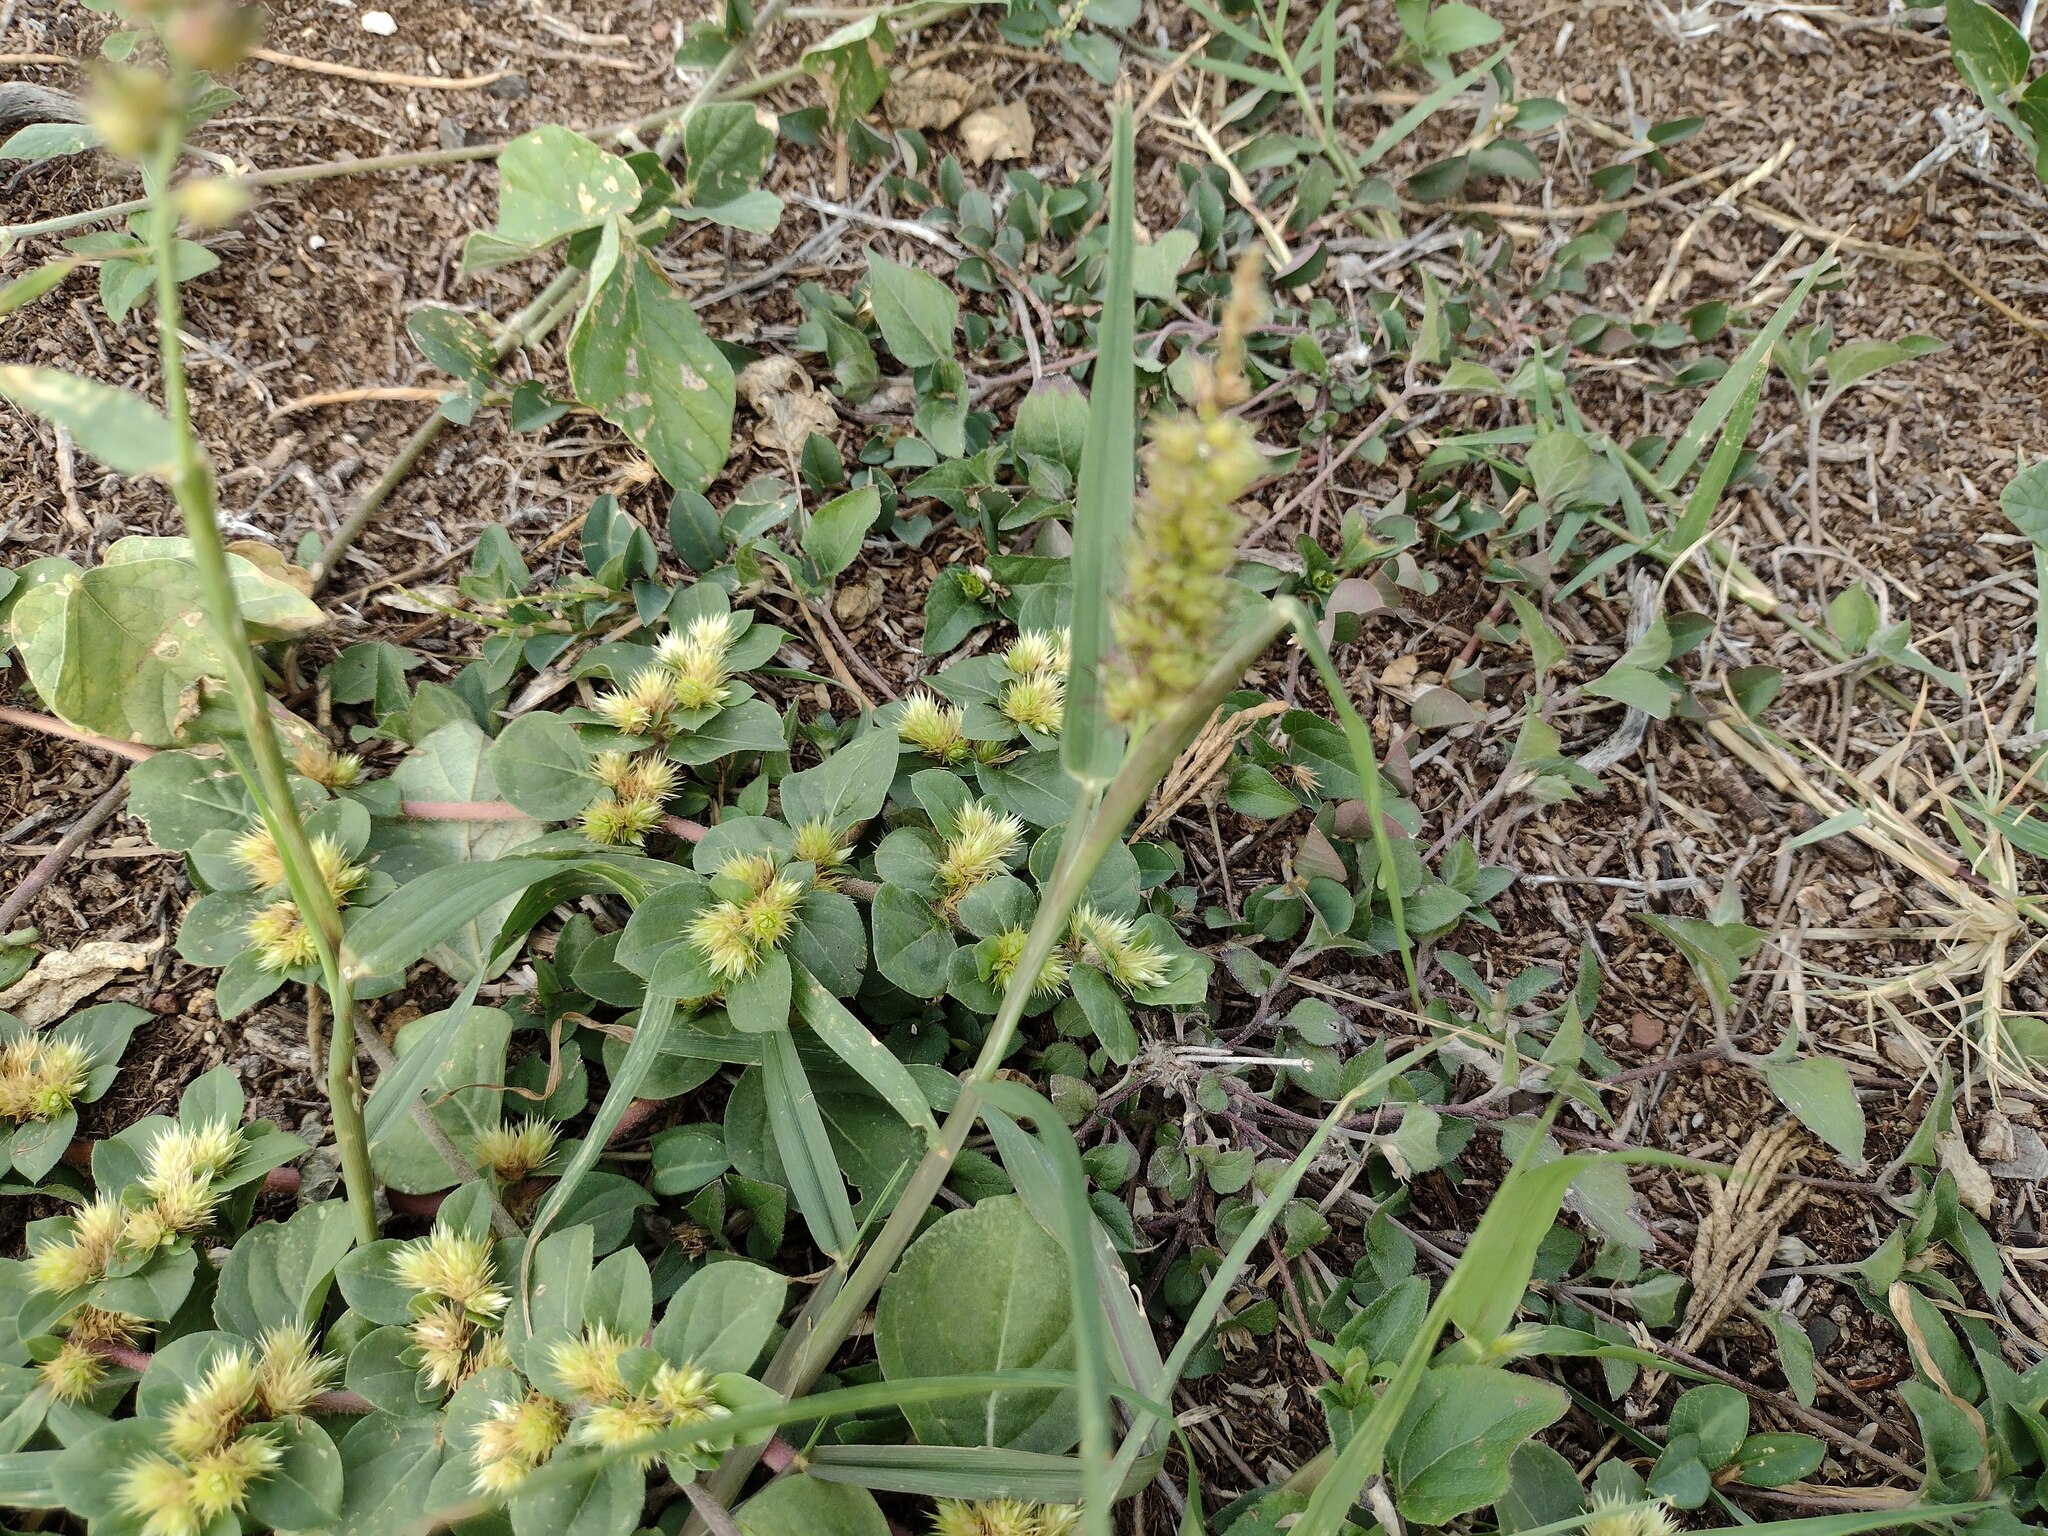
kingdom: Plantae
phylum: Tracheophyta
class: Magnoliopsida
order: Caryophyllales
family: Amaranthaceae
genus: Alternanthera
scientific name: Alternanthera pungens
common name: Khakiweed
